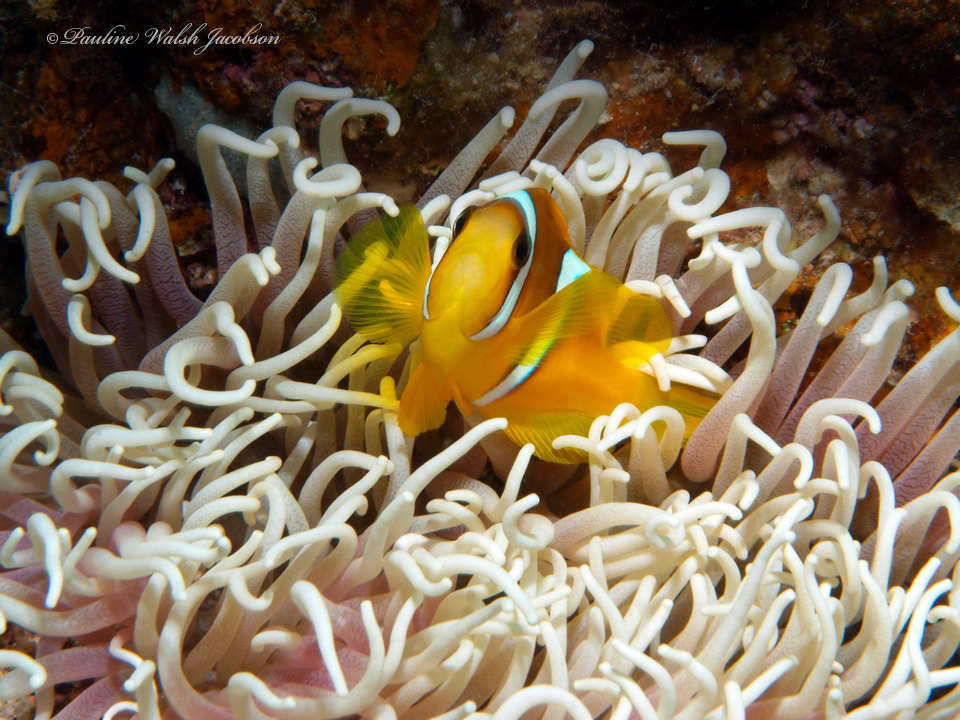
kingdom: Animalia
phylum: Chordata
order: Perciformes
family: Pomacentridae
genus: Amphiprion
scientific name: Amphiprion bicinctus
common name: Two-banded anemonefish
